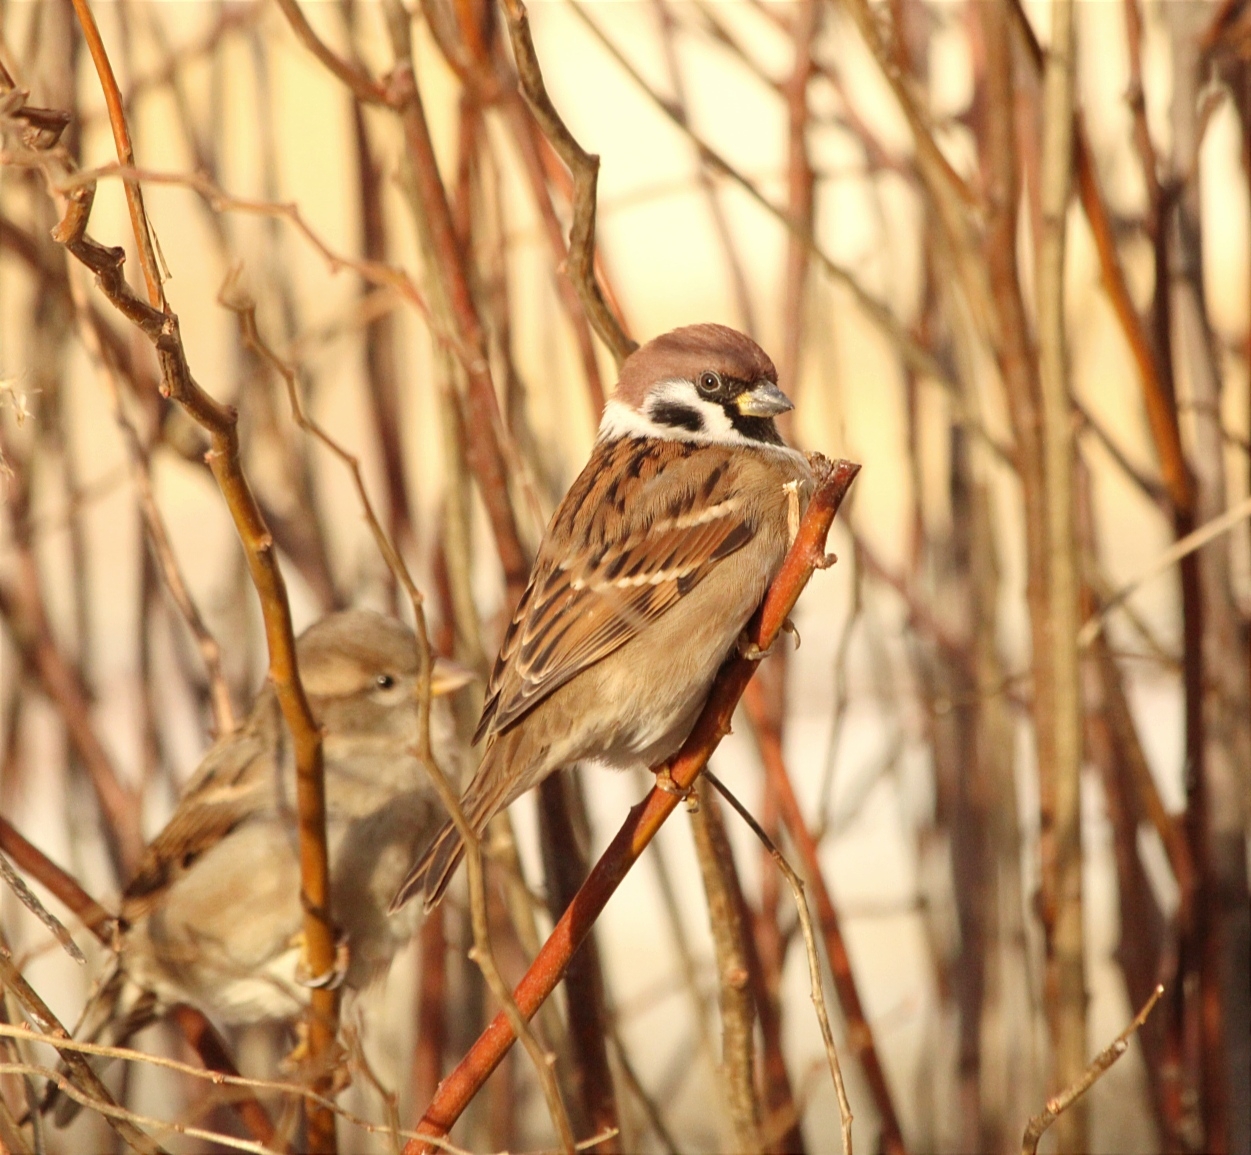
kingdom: Animalia
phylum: Chordata
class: Aves
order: Passeriformes
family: Passeridae
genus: Passer
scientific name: Passer montanus
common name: Eurasian tree sparrow
